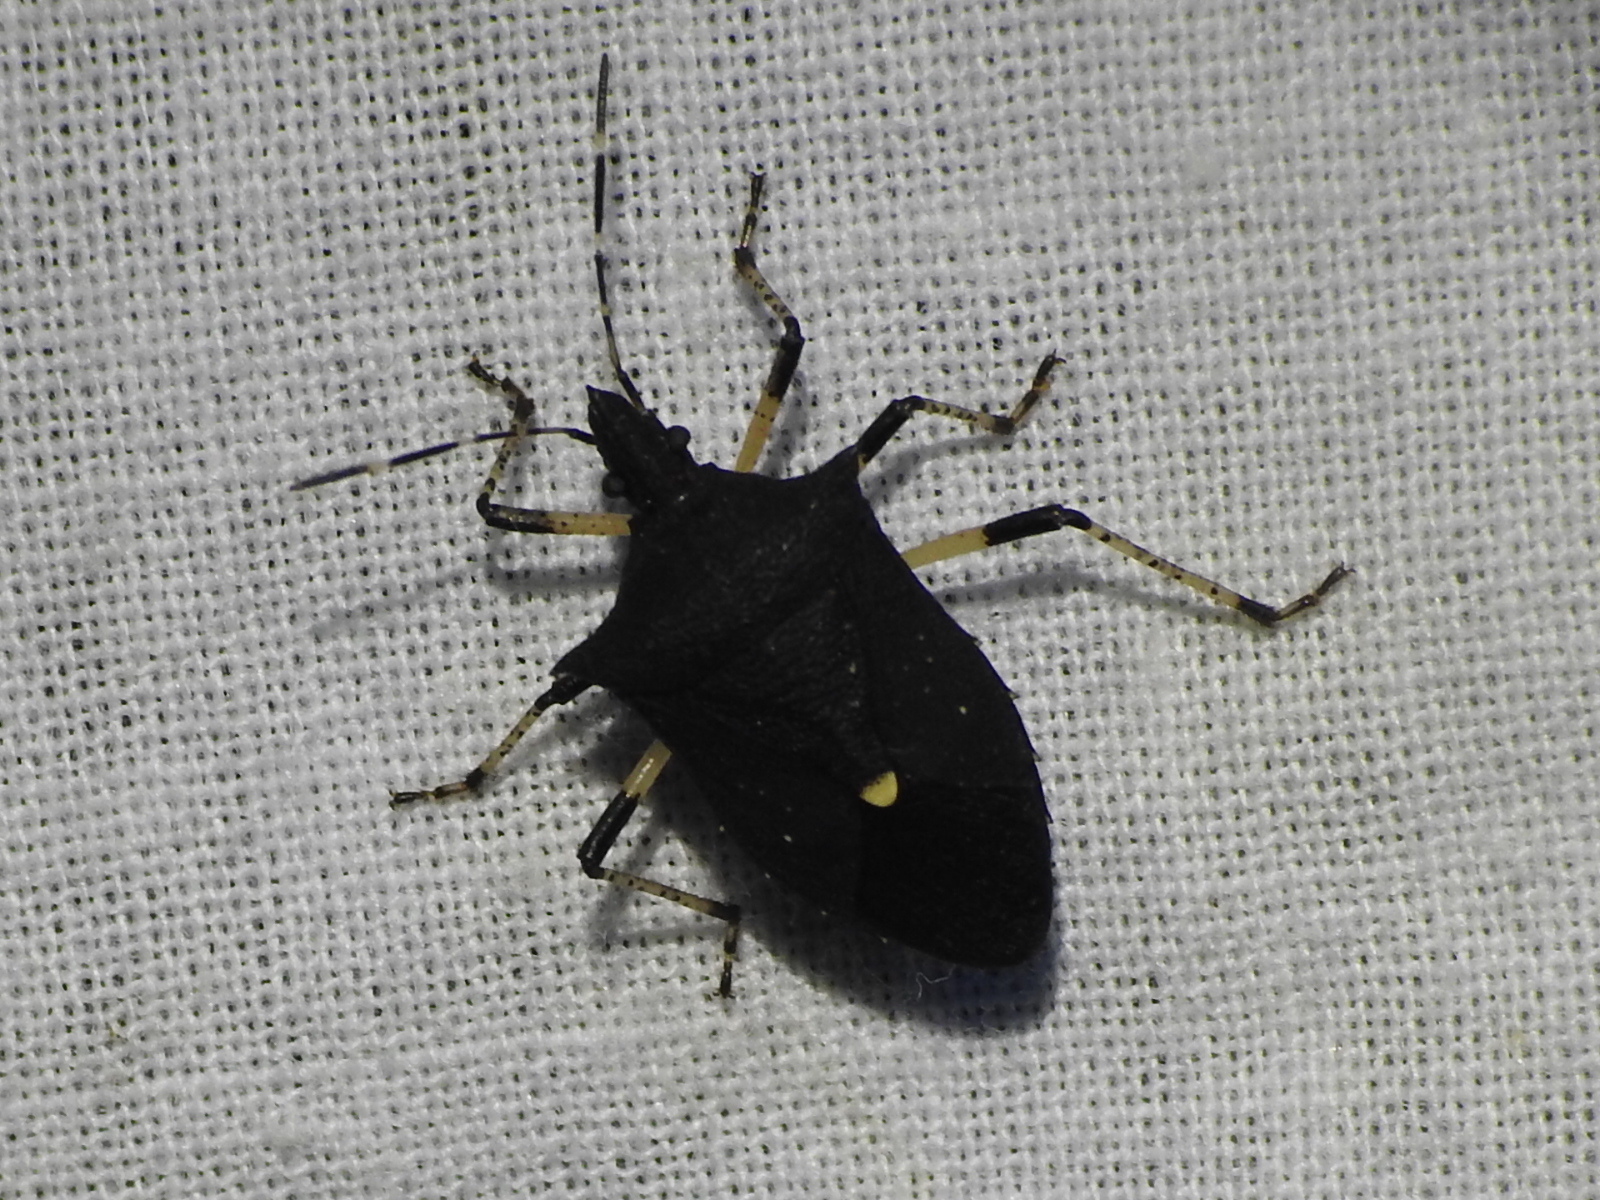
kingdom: Animalia
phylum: Arthropoda
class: Insecta
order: Hemiptera
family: Pentatomidae
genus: Proxys
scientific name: Proxys punctulatus
